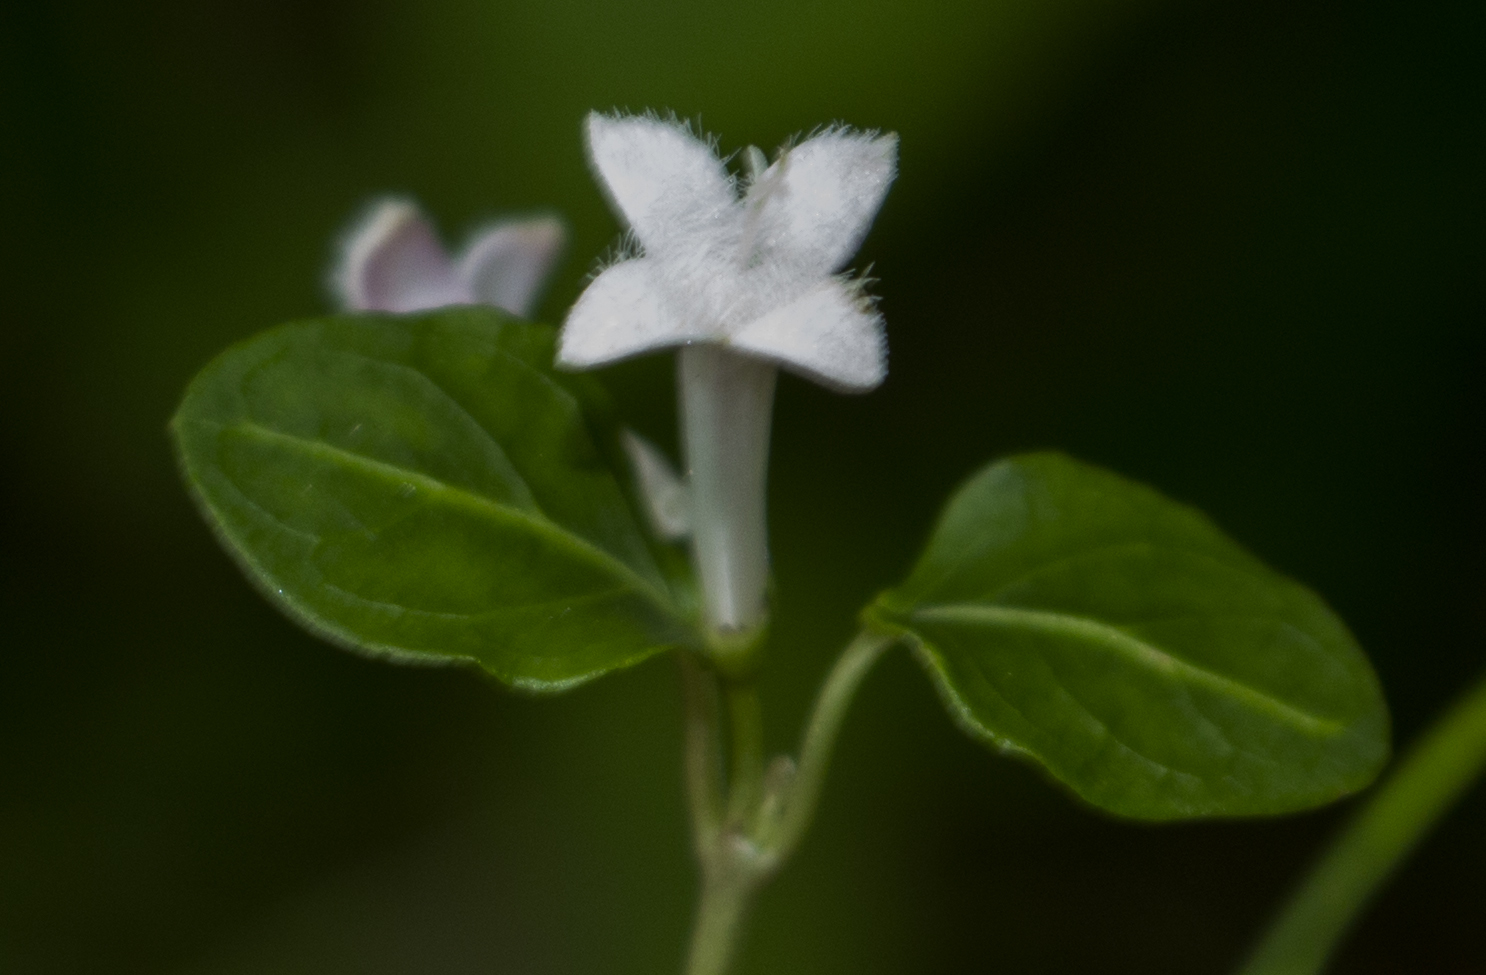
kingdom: Plantae
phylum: Tracheophyta
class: Magnoliopsida
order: Gentianales
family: Rubiaceae
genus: Mitchella
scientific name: Mitchella repens
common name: Partridge-berry
